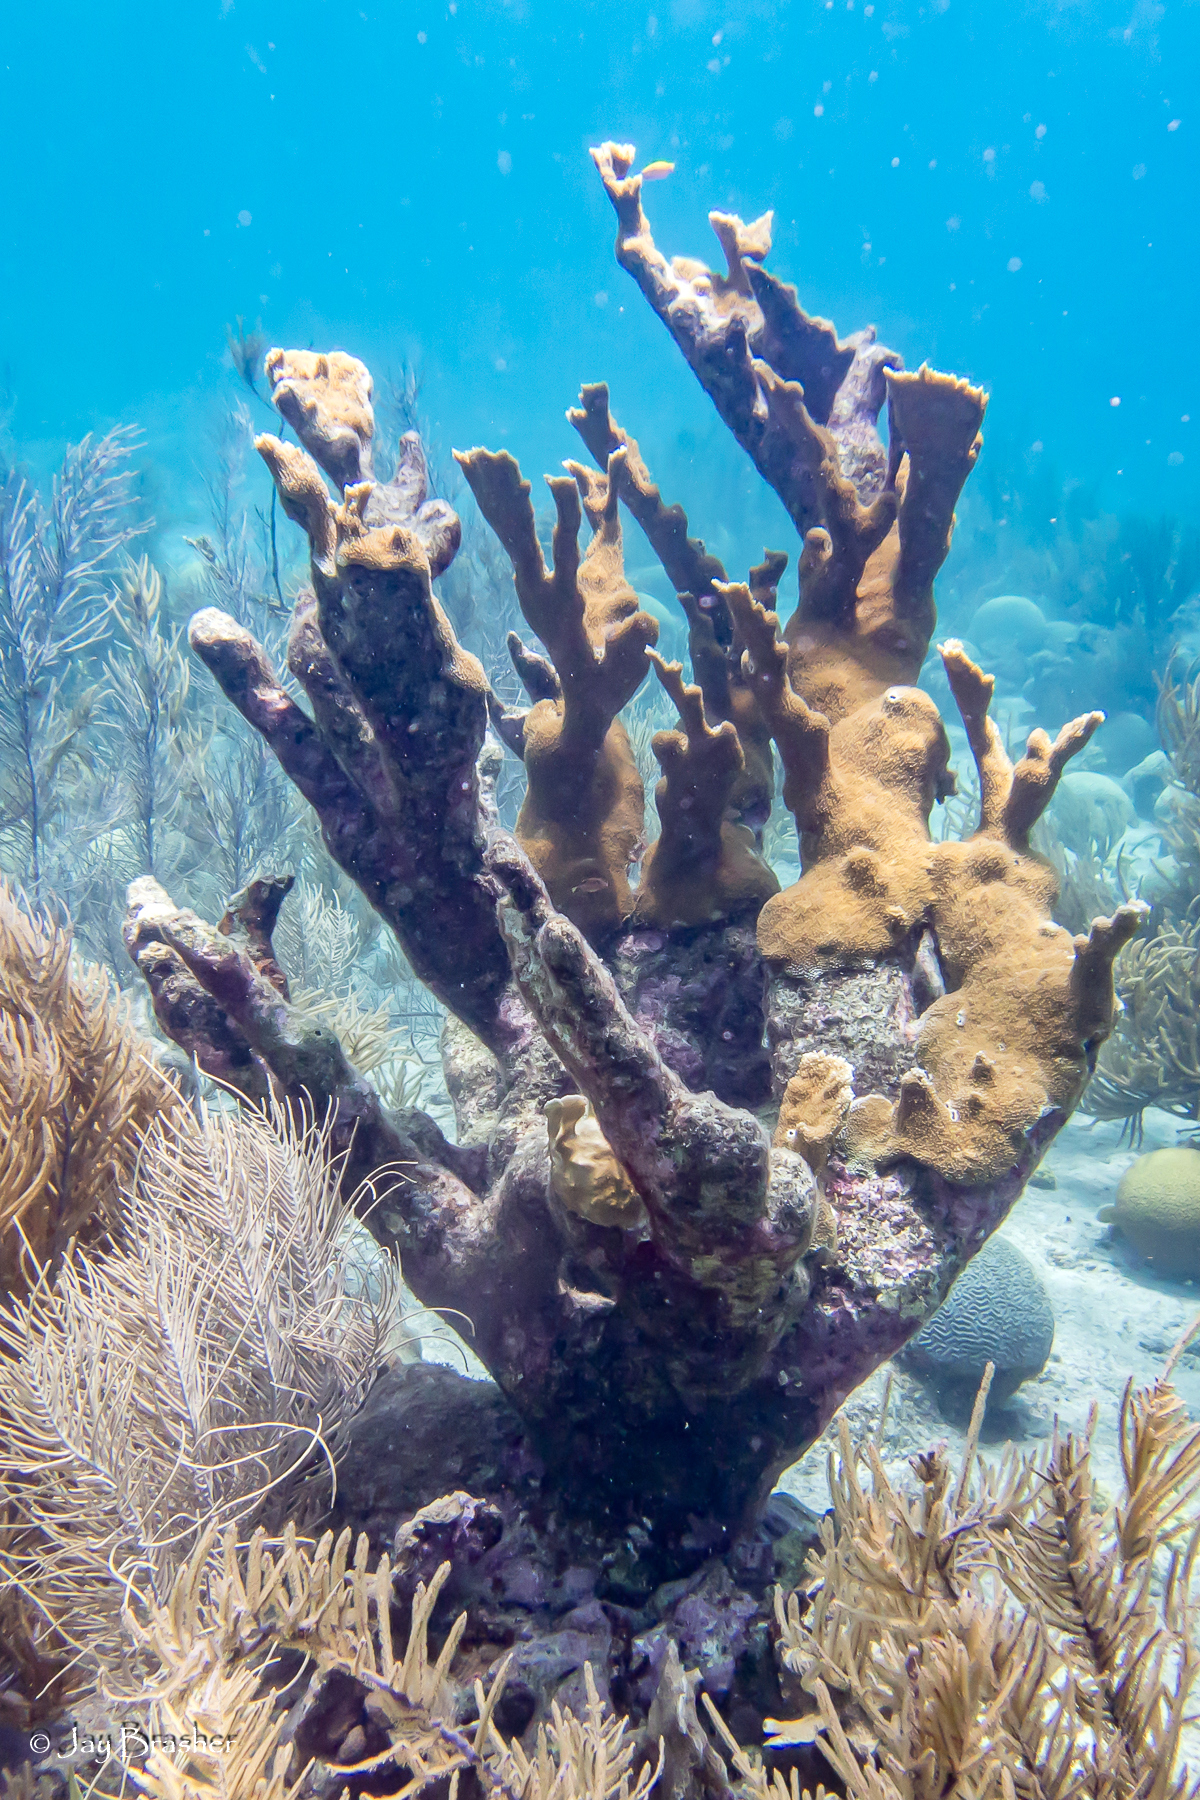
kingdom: Animalia
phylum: Cnidaria
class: Anthozoa
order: Scleractinia
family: Acroporidae
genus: Acropora
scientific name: Acropora palmata
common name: Elkhorn coral
